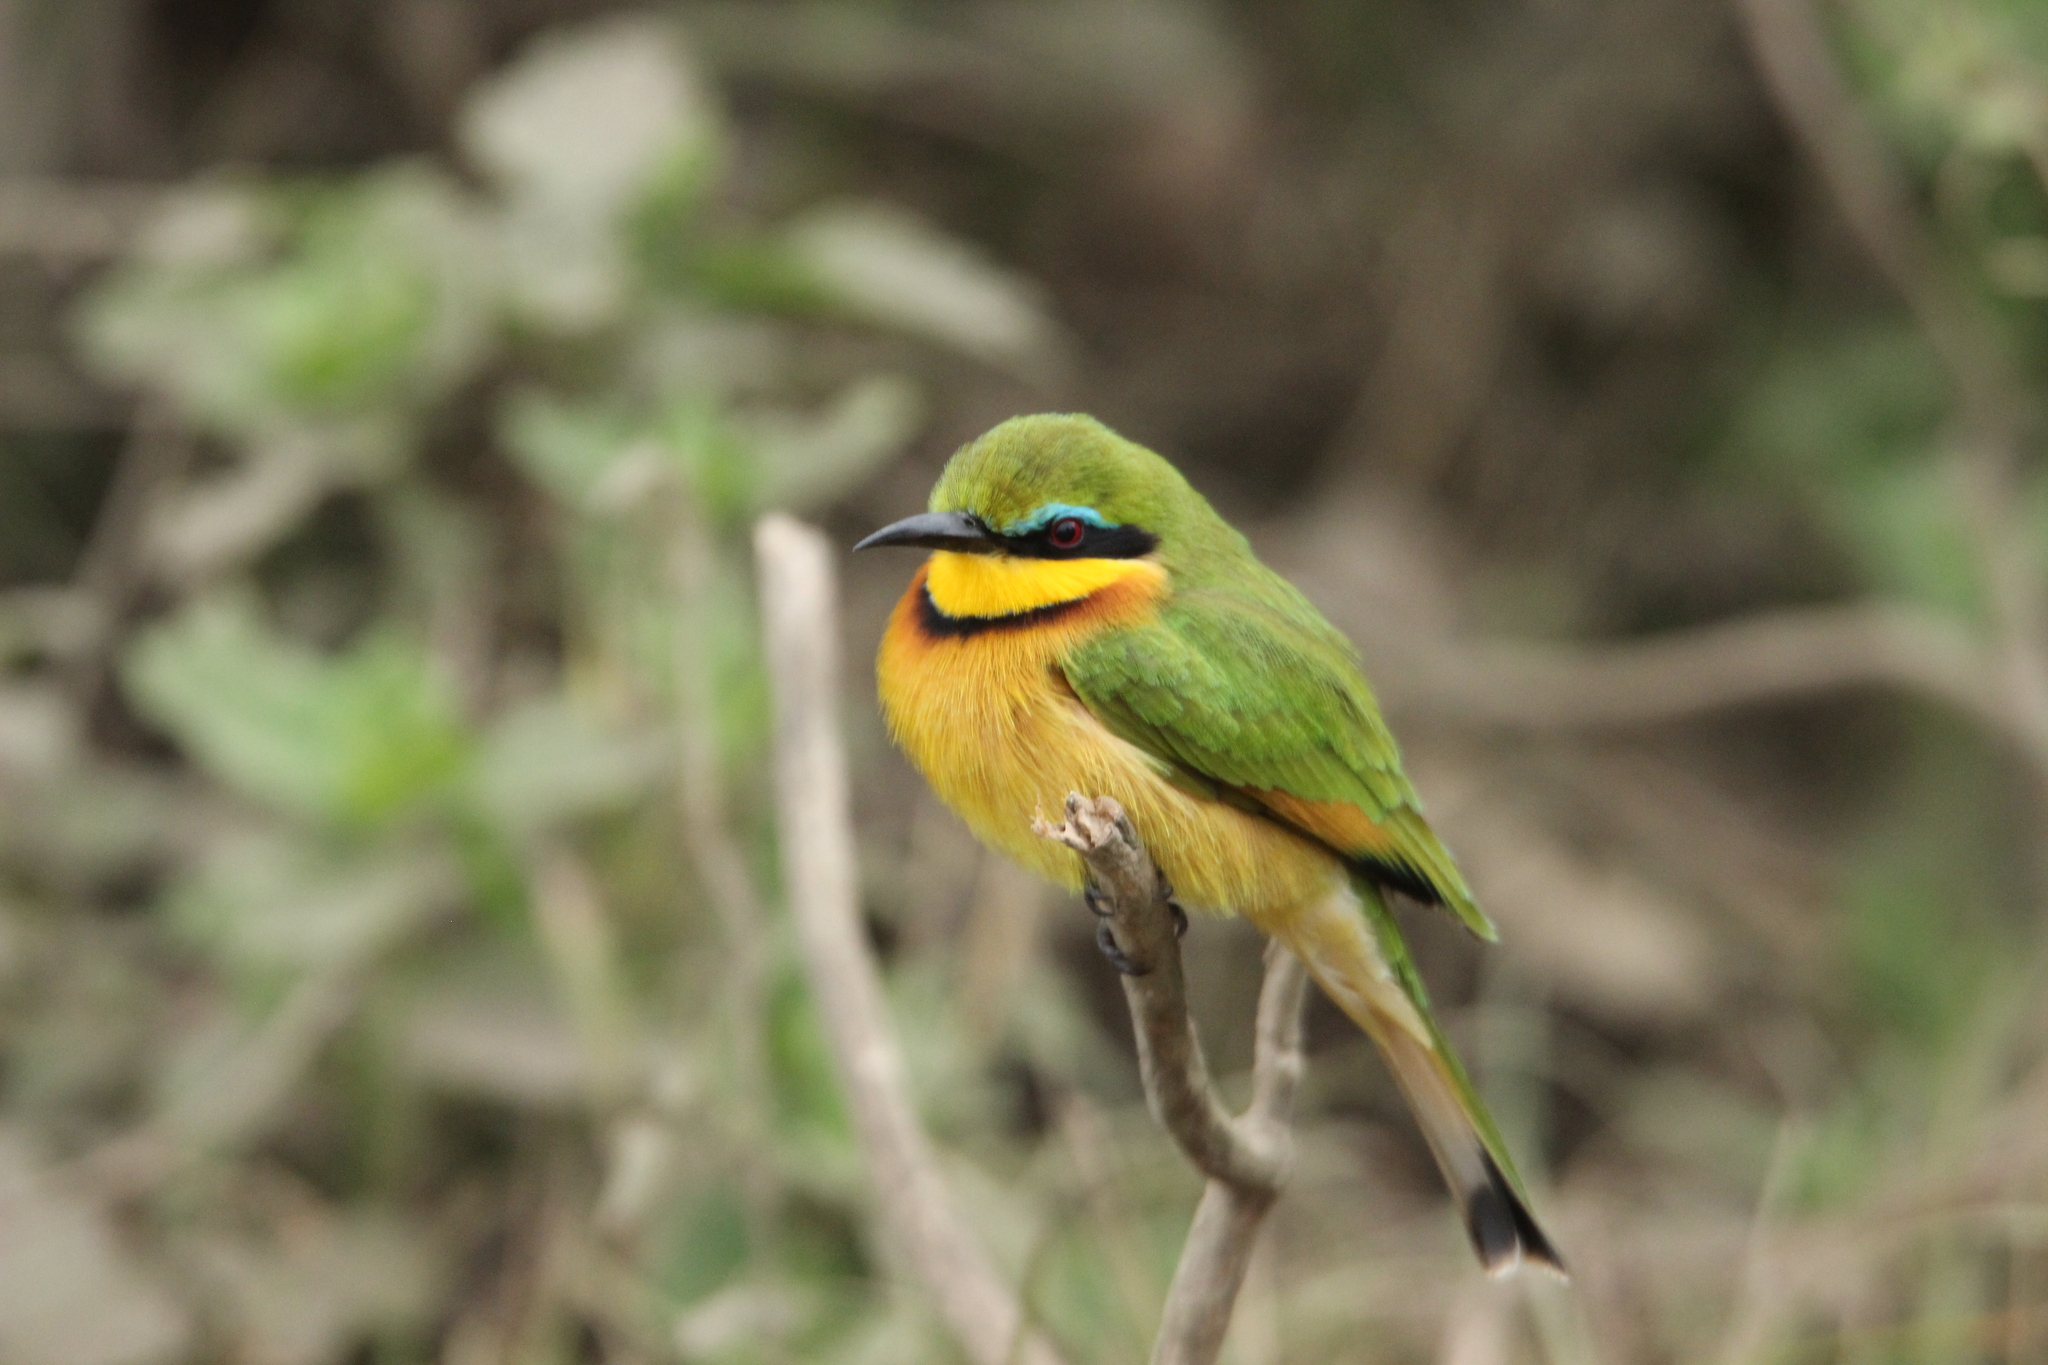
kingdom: Animalia
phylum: Chordata
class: Aves
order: Coraciiformes
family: Meropidae
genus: Merops
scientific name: Merops pusillus
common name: Little bee-eater
